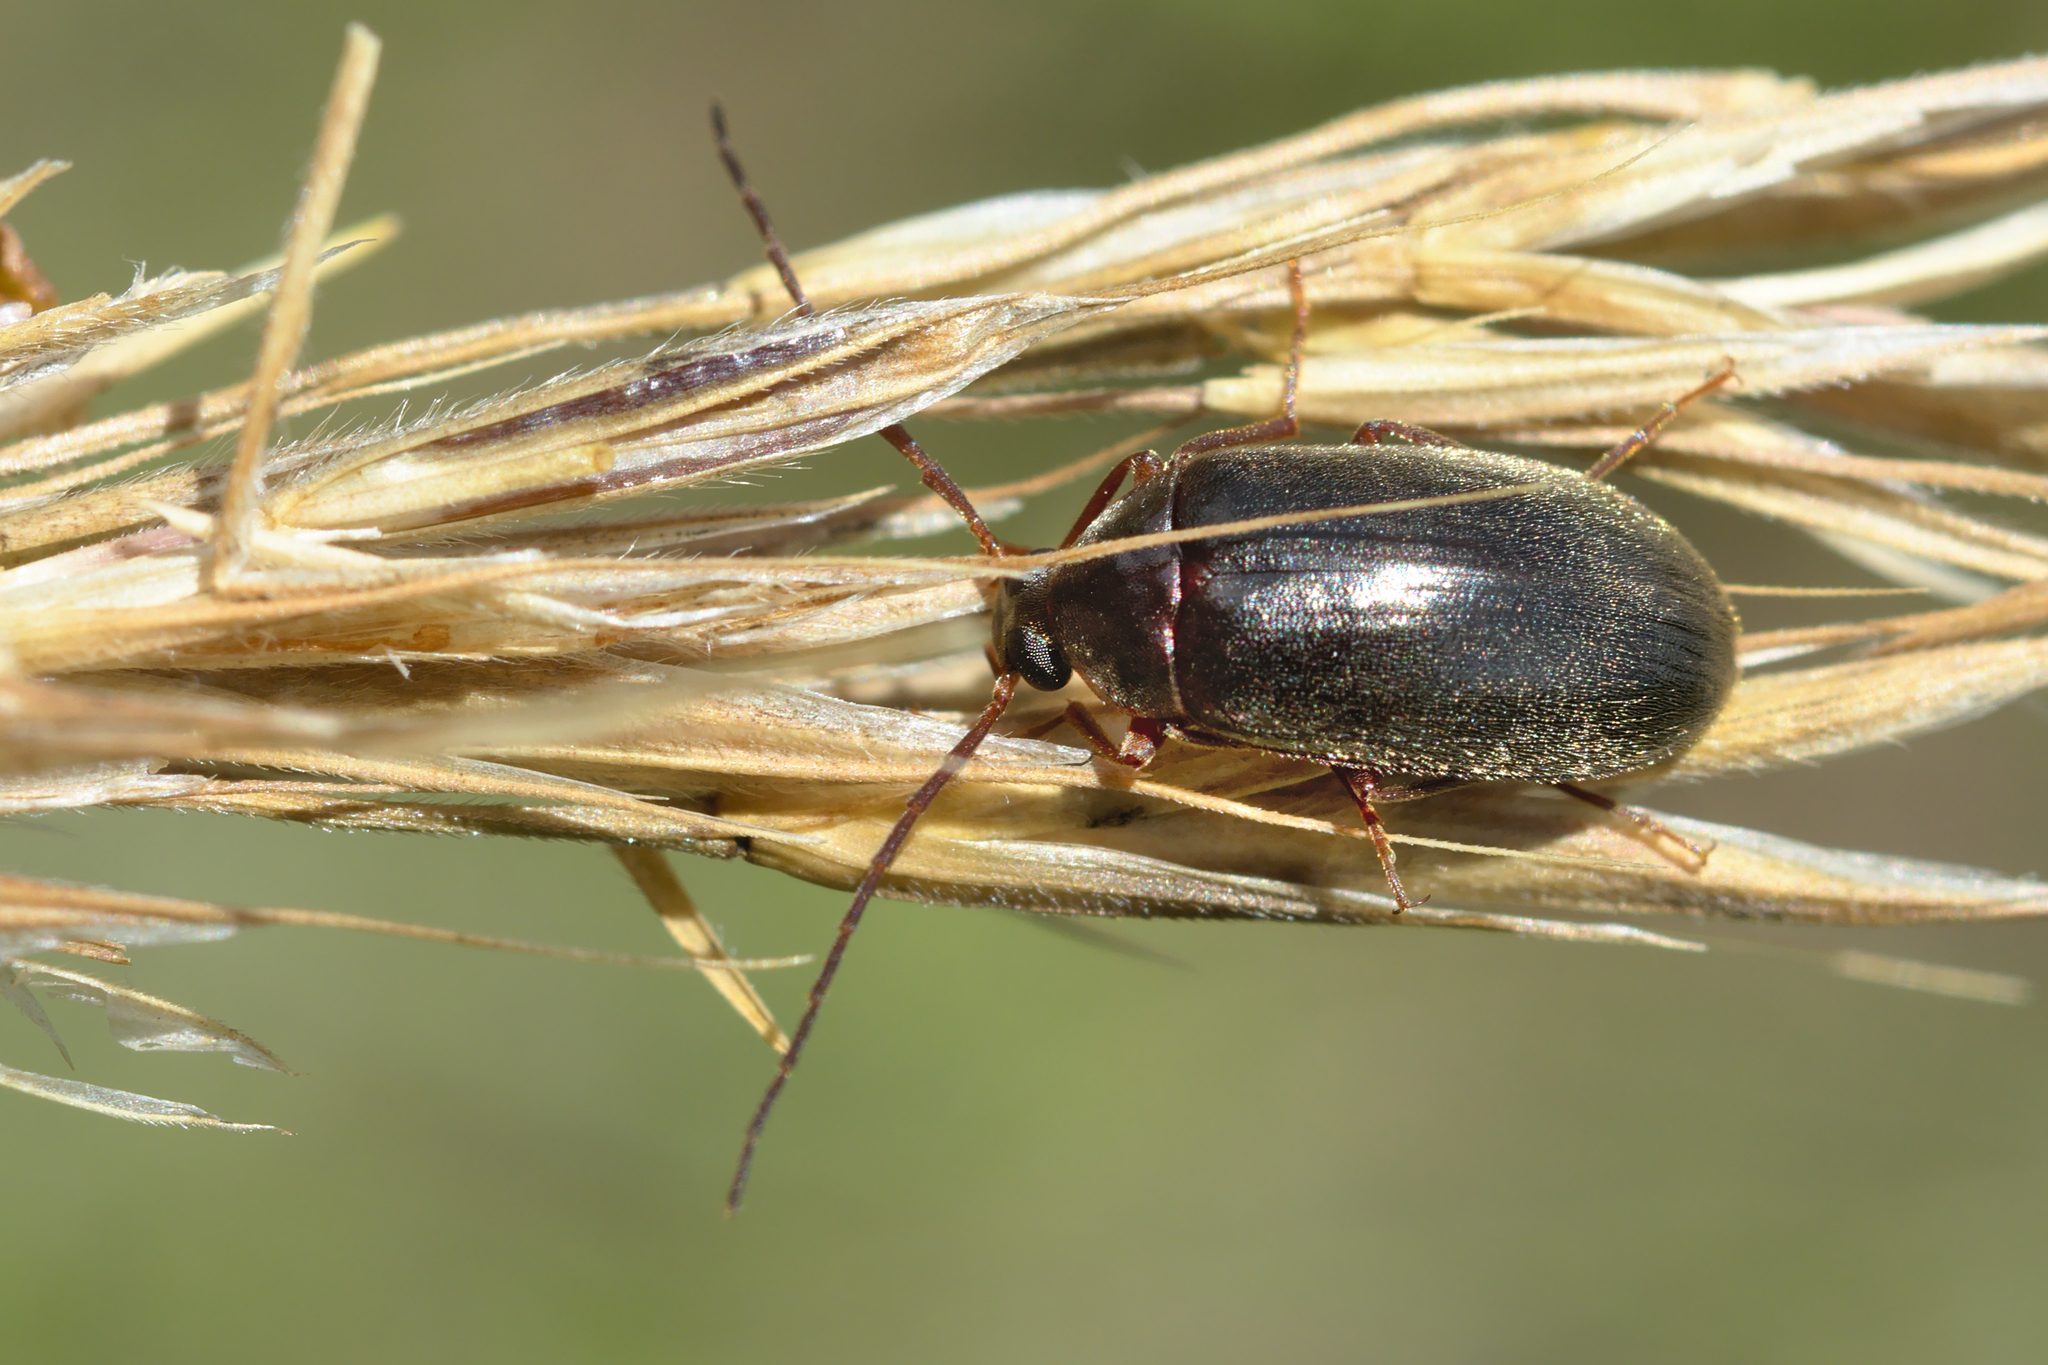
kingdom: Animalia
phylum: Arthropoda
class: Insecta
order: Coleoptera
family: Tenebrionidae
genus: Allecula
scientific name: Allecula morio
